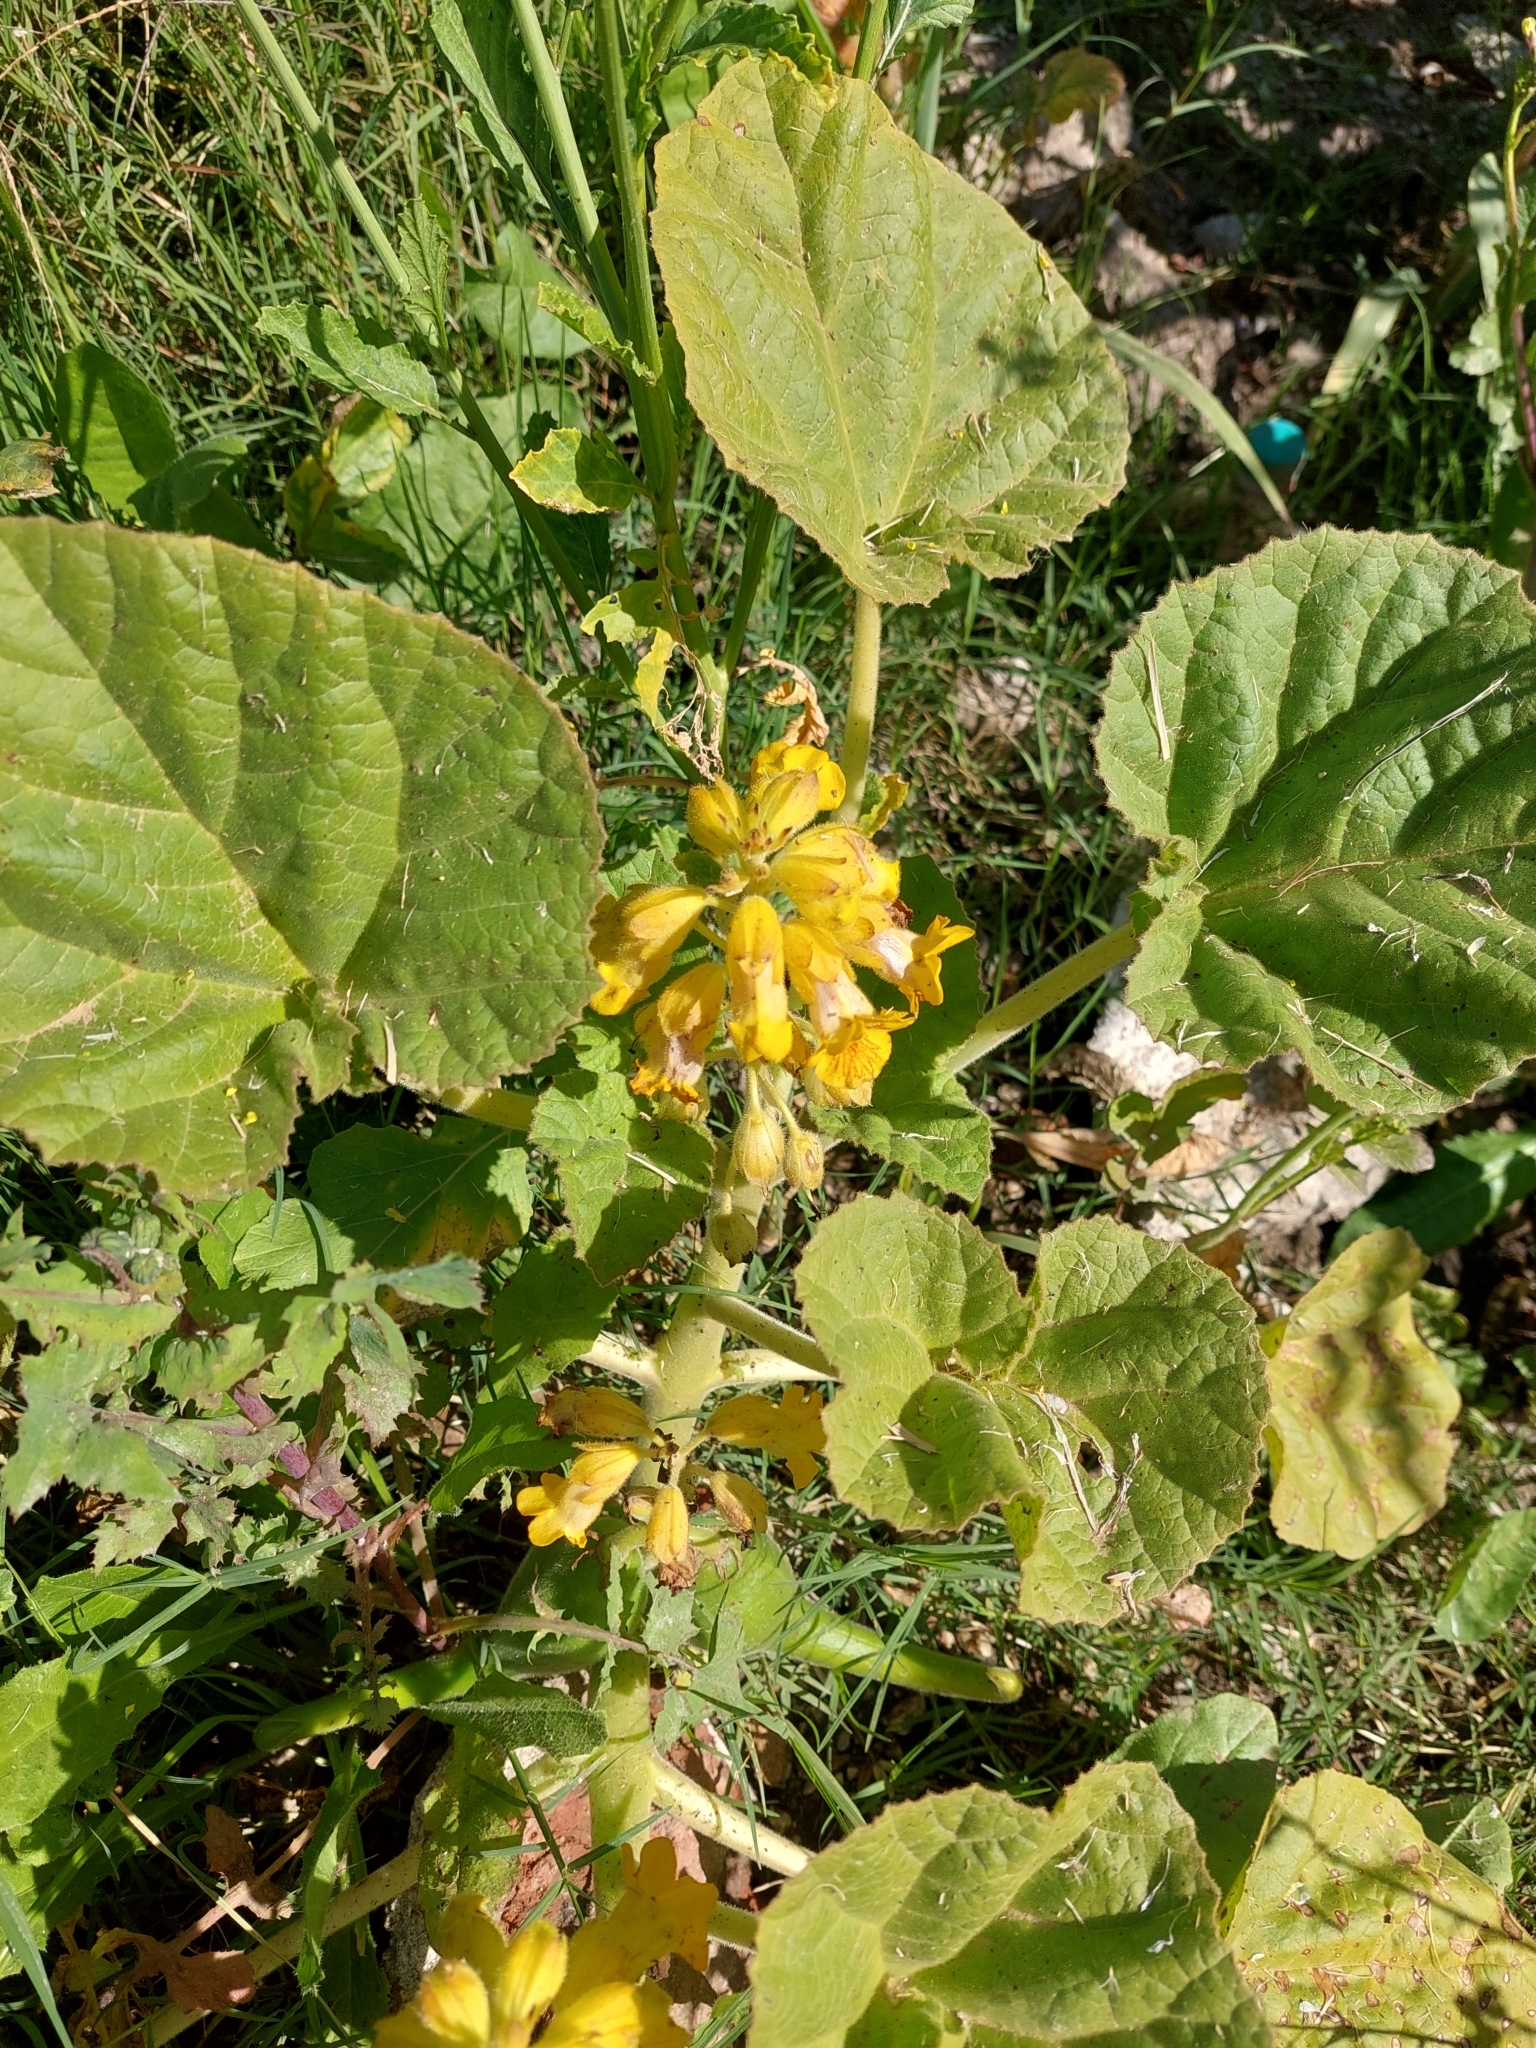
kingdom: Plantae
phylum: Tracheophyta
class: Magnoliopsida
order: Lamiales
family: Martyniaceae
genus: Ibicella
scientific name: Ibicella lutea
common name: Yellow unicorn-plant
